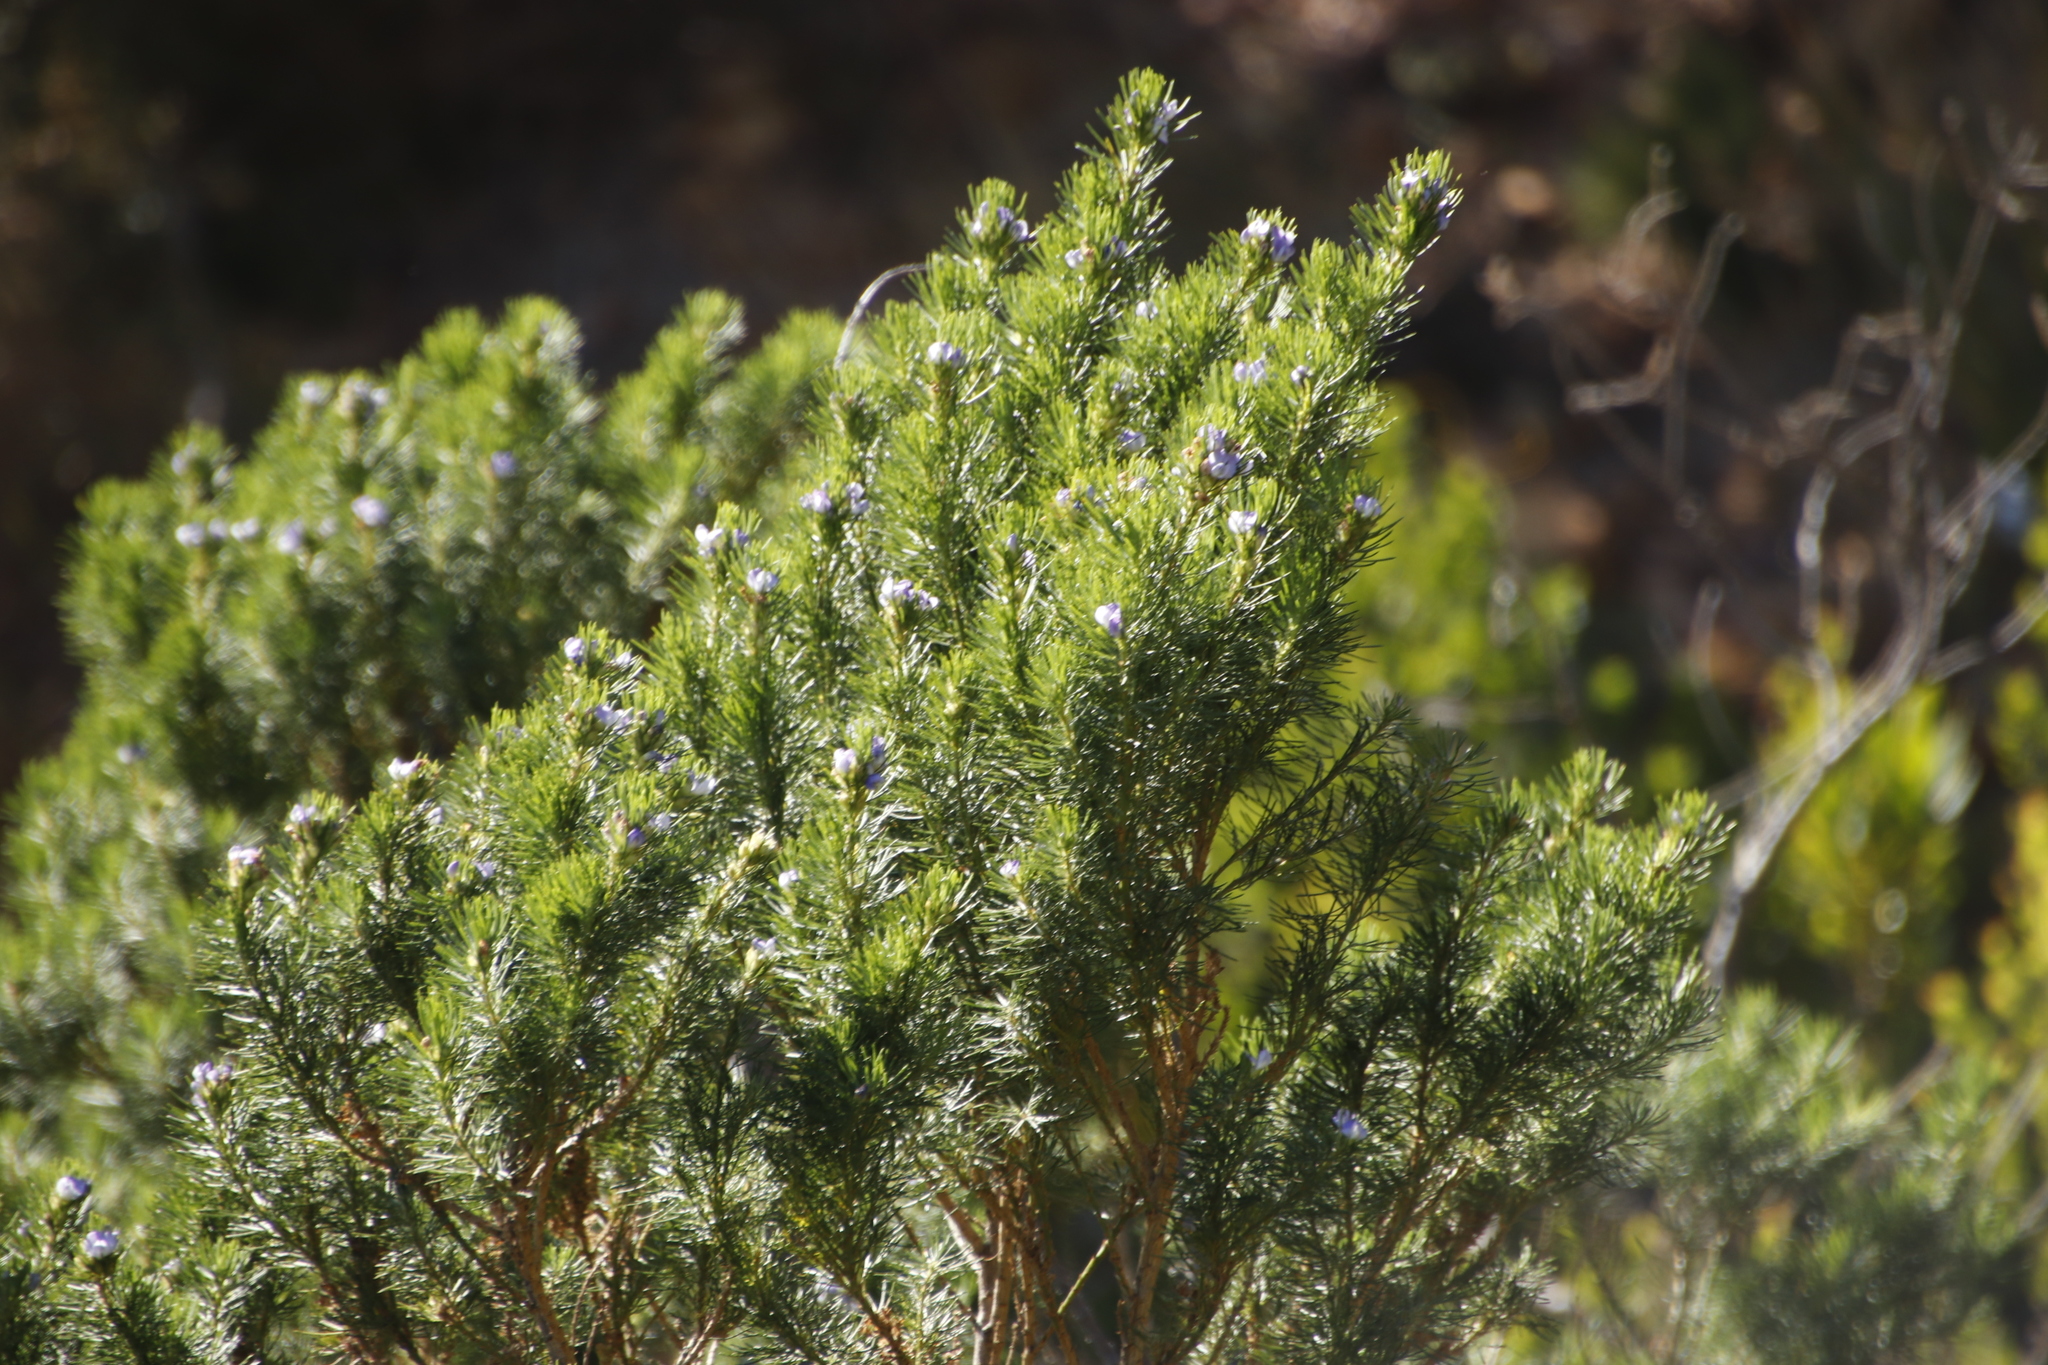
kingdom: Plantae
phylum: Tracheophyta
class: Magnoliopsida
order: Fabales
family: Fabaceae
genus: Psoralea
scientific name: Psoralea pinnata
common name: African scurfpea
